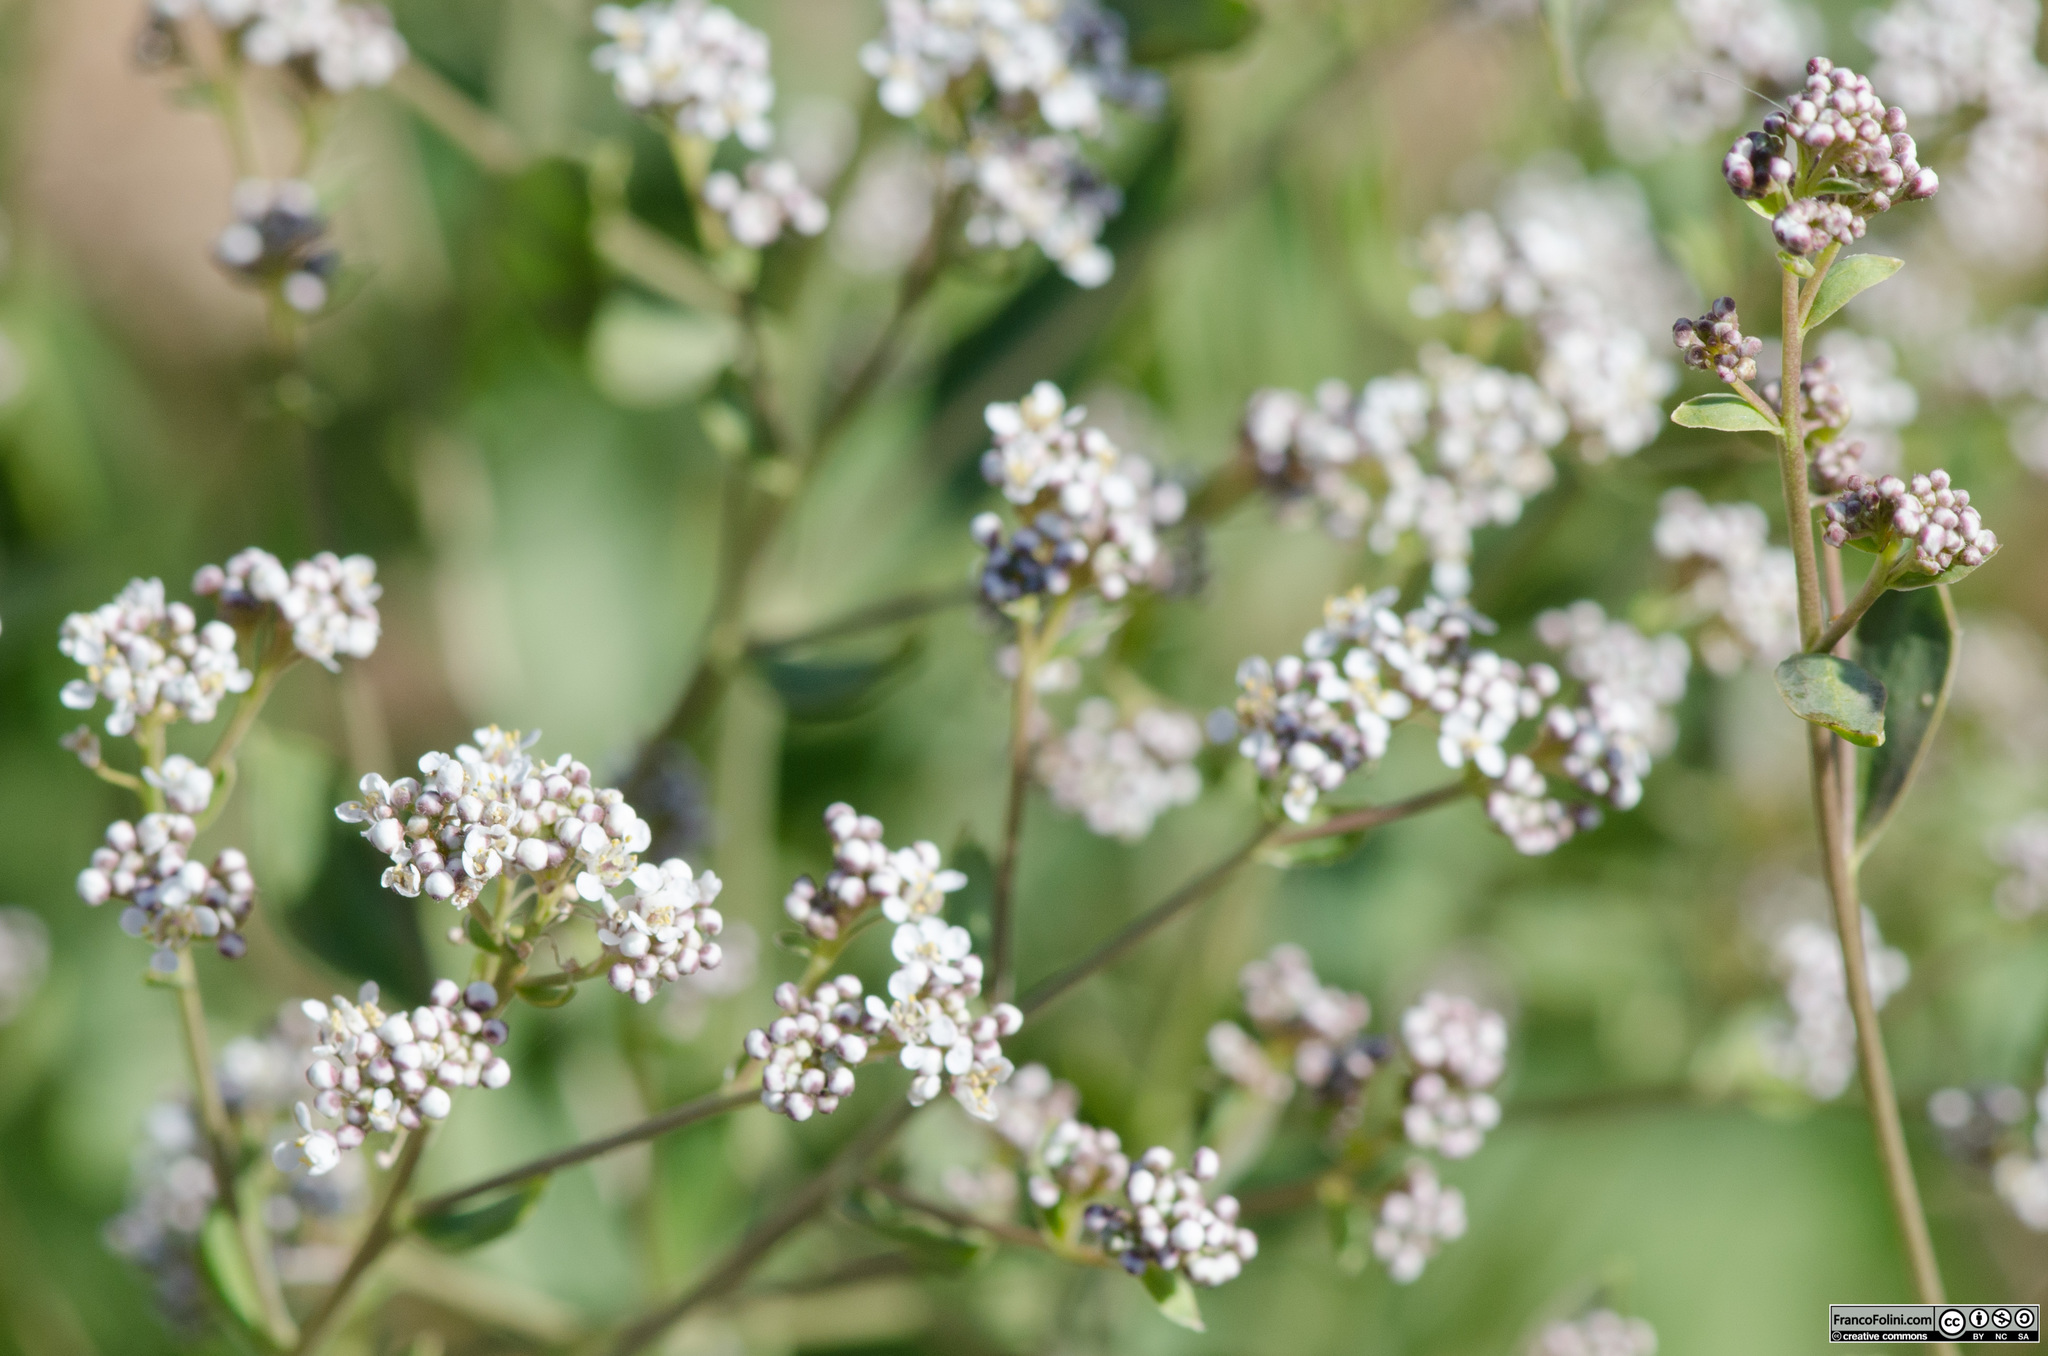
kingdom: Plantae
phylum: Tracheophyta
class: Magnoliopsida
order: Brassicales
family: Brassicaceae
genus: Lepidium
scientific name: Lepidium latifolium
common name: Dittander
